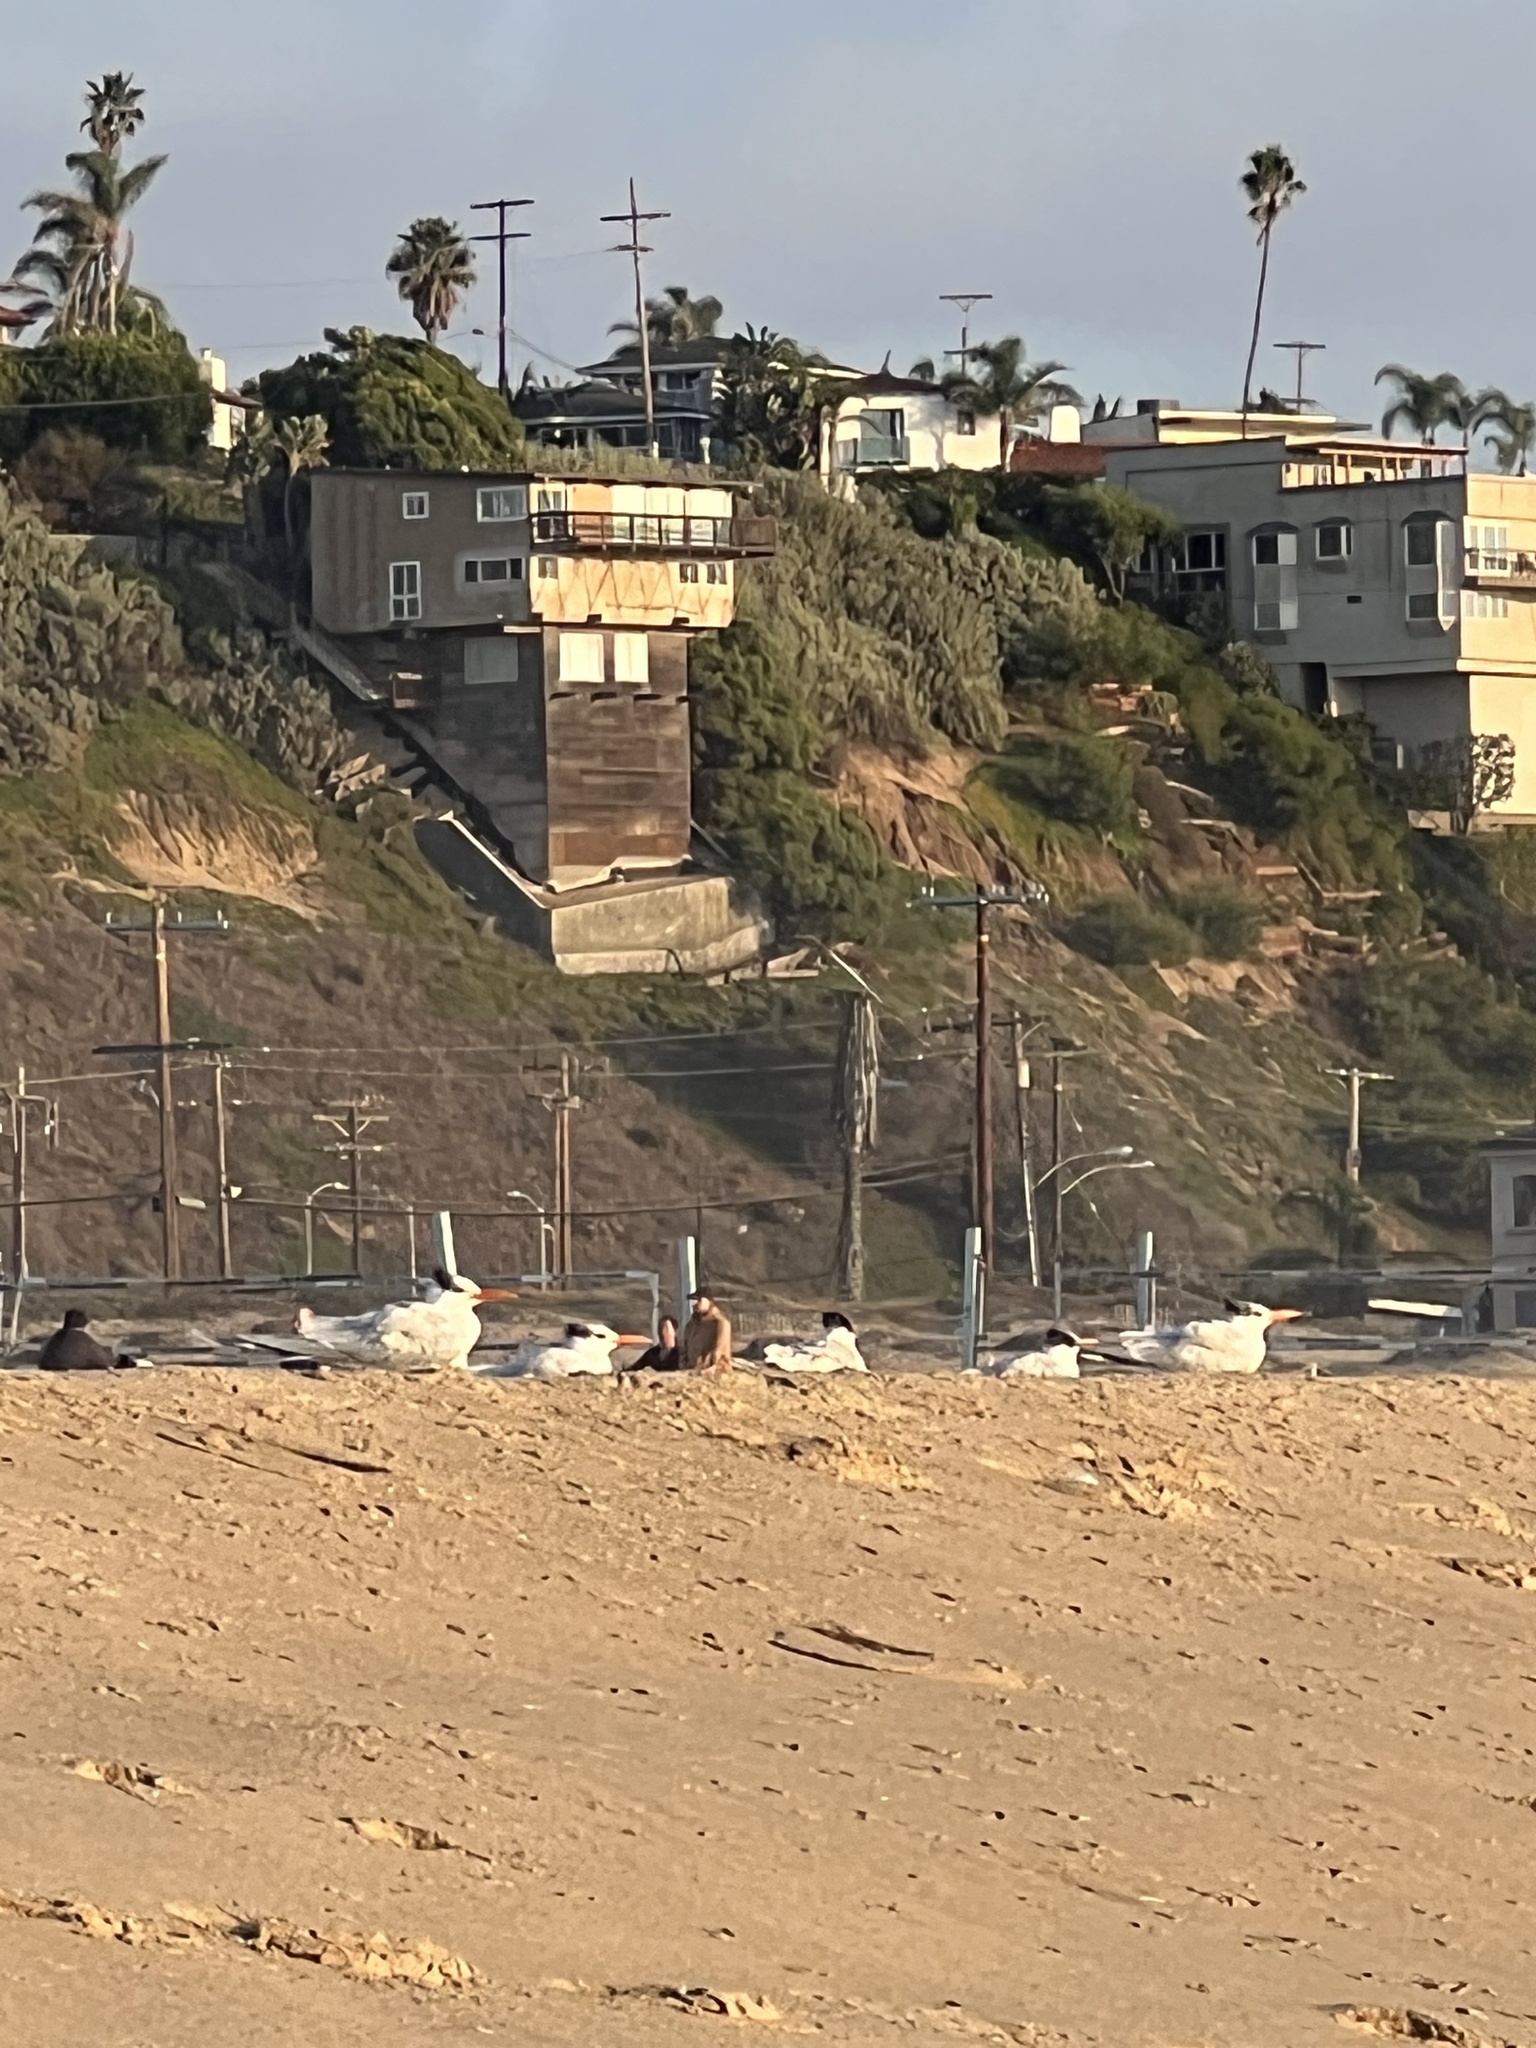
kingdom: Animalia
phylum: Chordata
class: Aves
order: Charadriiformes
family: Laridae
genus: Thalasseus
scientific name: Thalasseus maximus
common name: Royal tern
